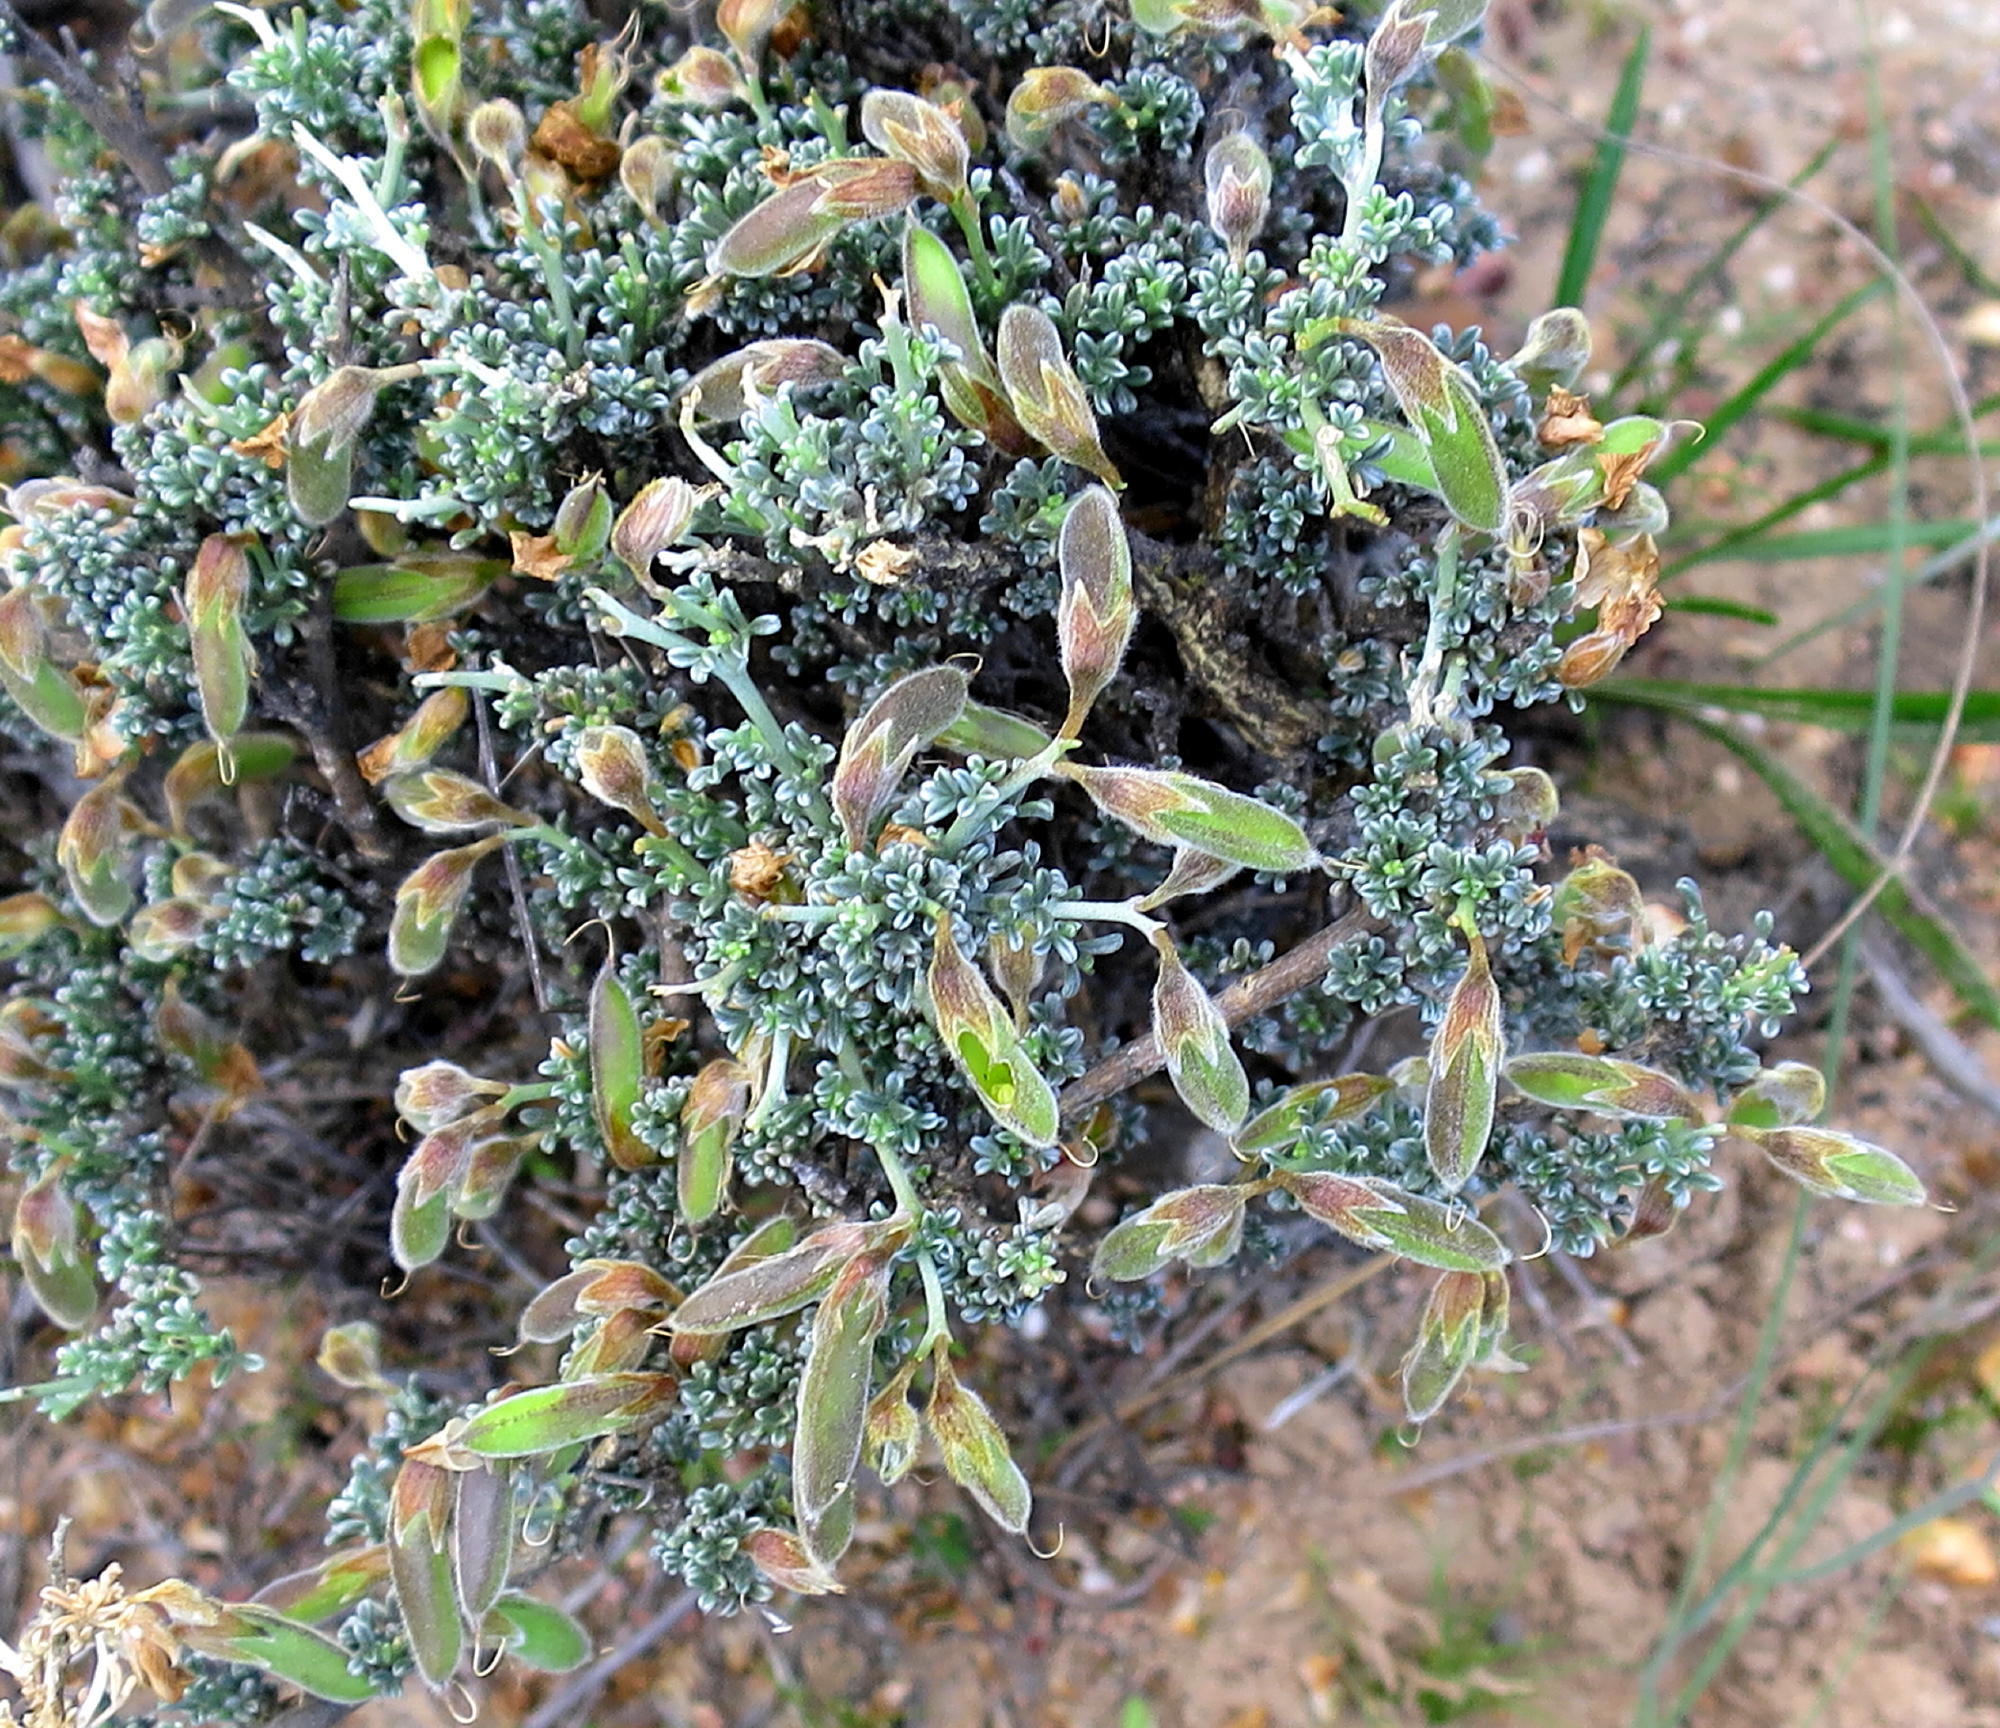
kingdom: Plantae
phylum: Tracheophyta
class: Magnoliopsida
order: Fabales
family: Fabaceae
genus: Lotononis
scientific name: Lotononis rigida
